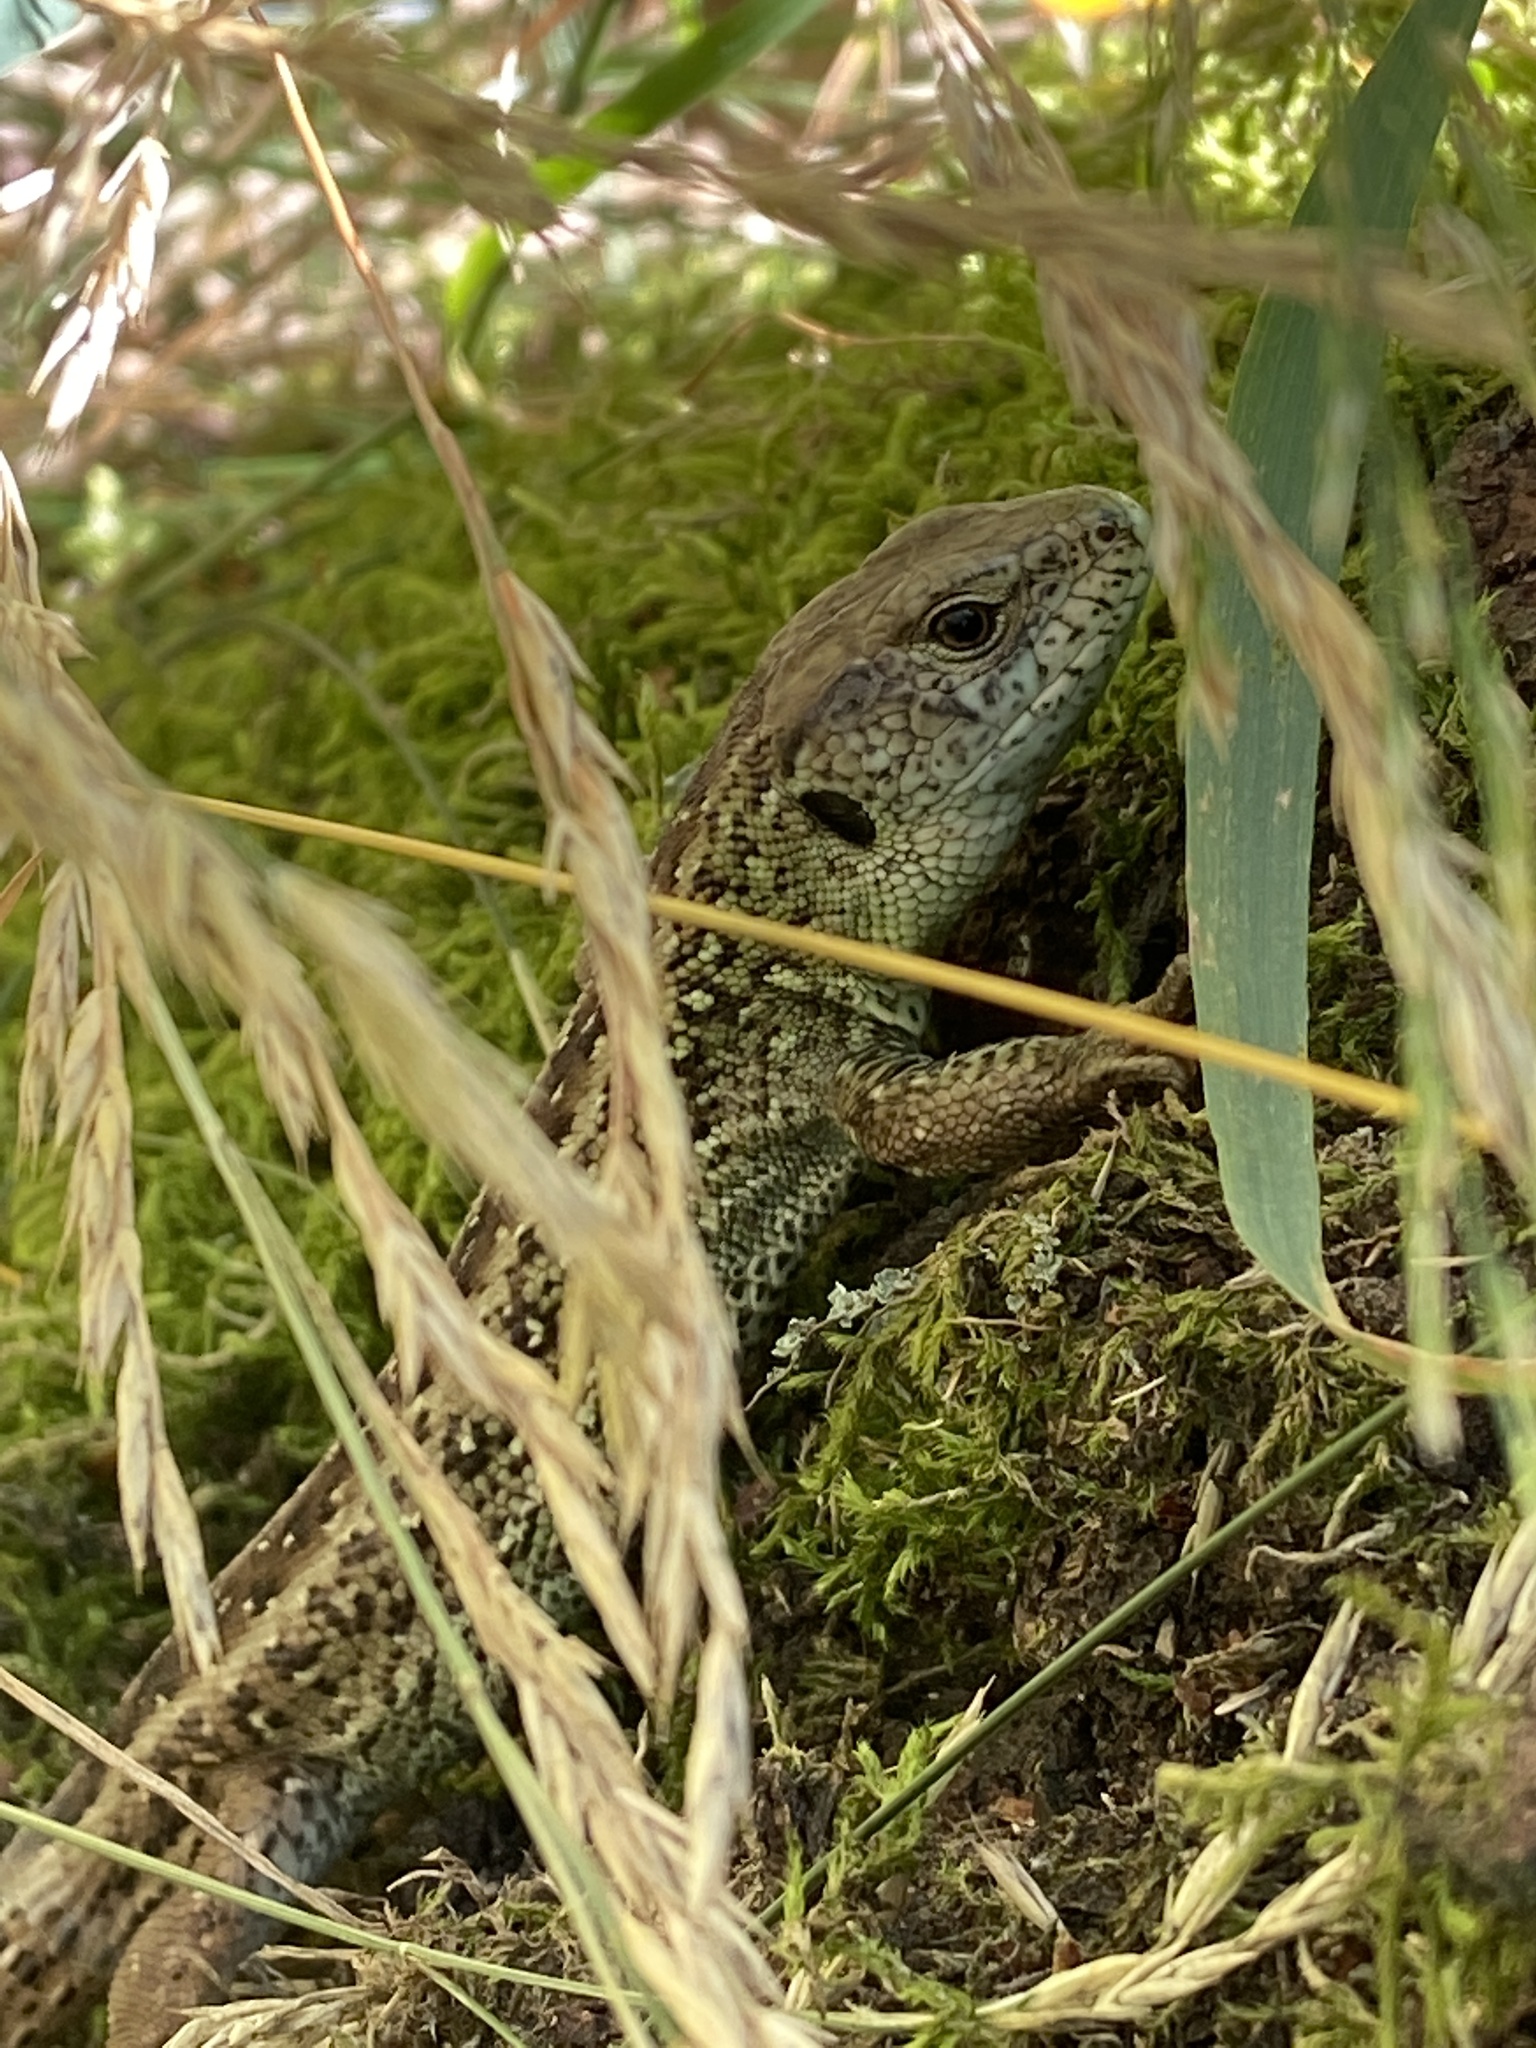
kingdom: Animalia
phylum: Chordata
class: Squamata
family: Lacertidae
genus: Lacerta
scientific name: Lacerta agilis
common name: Sand lizard
